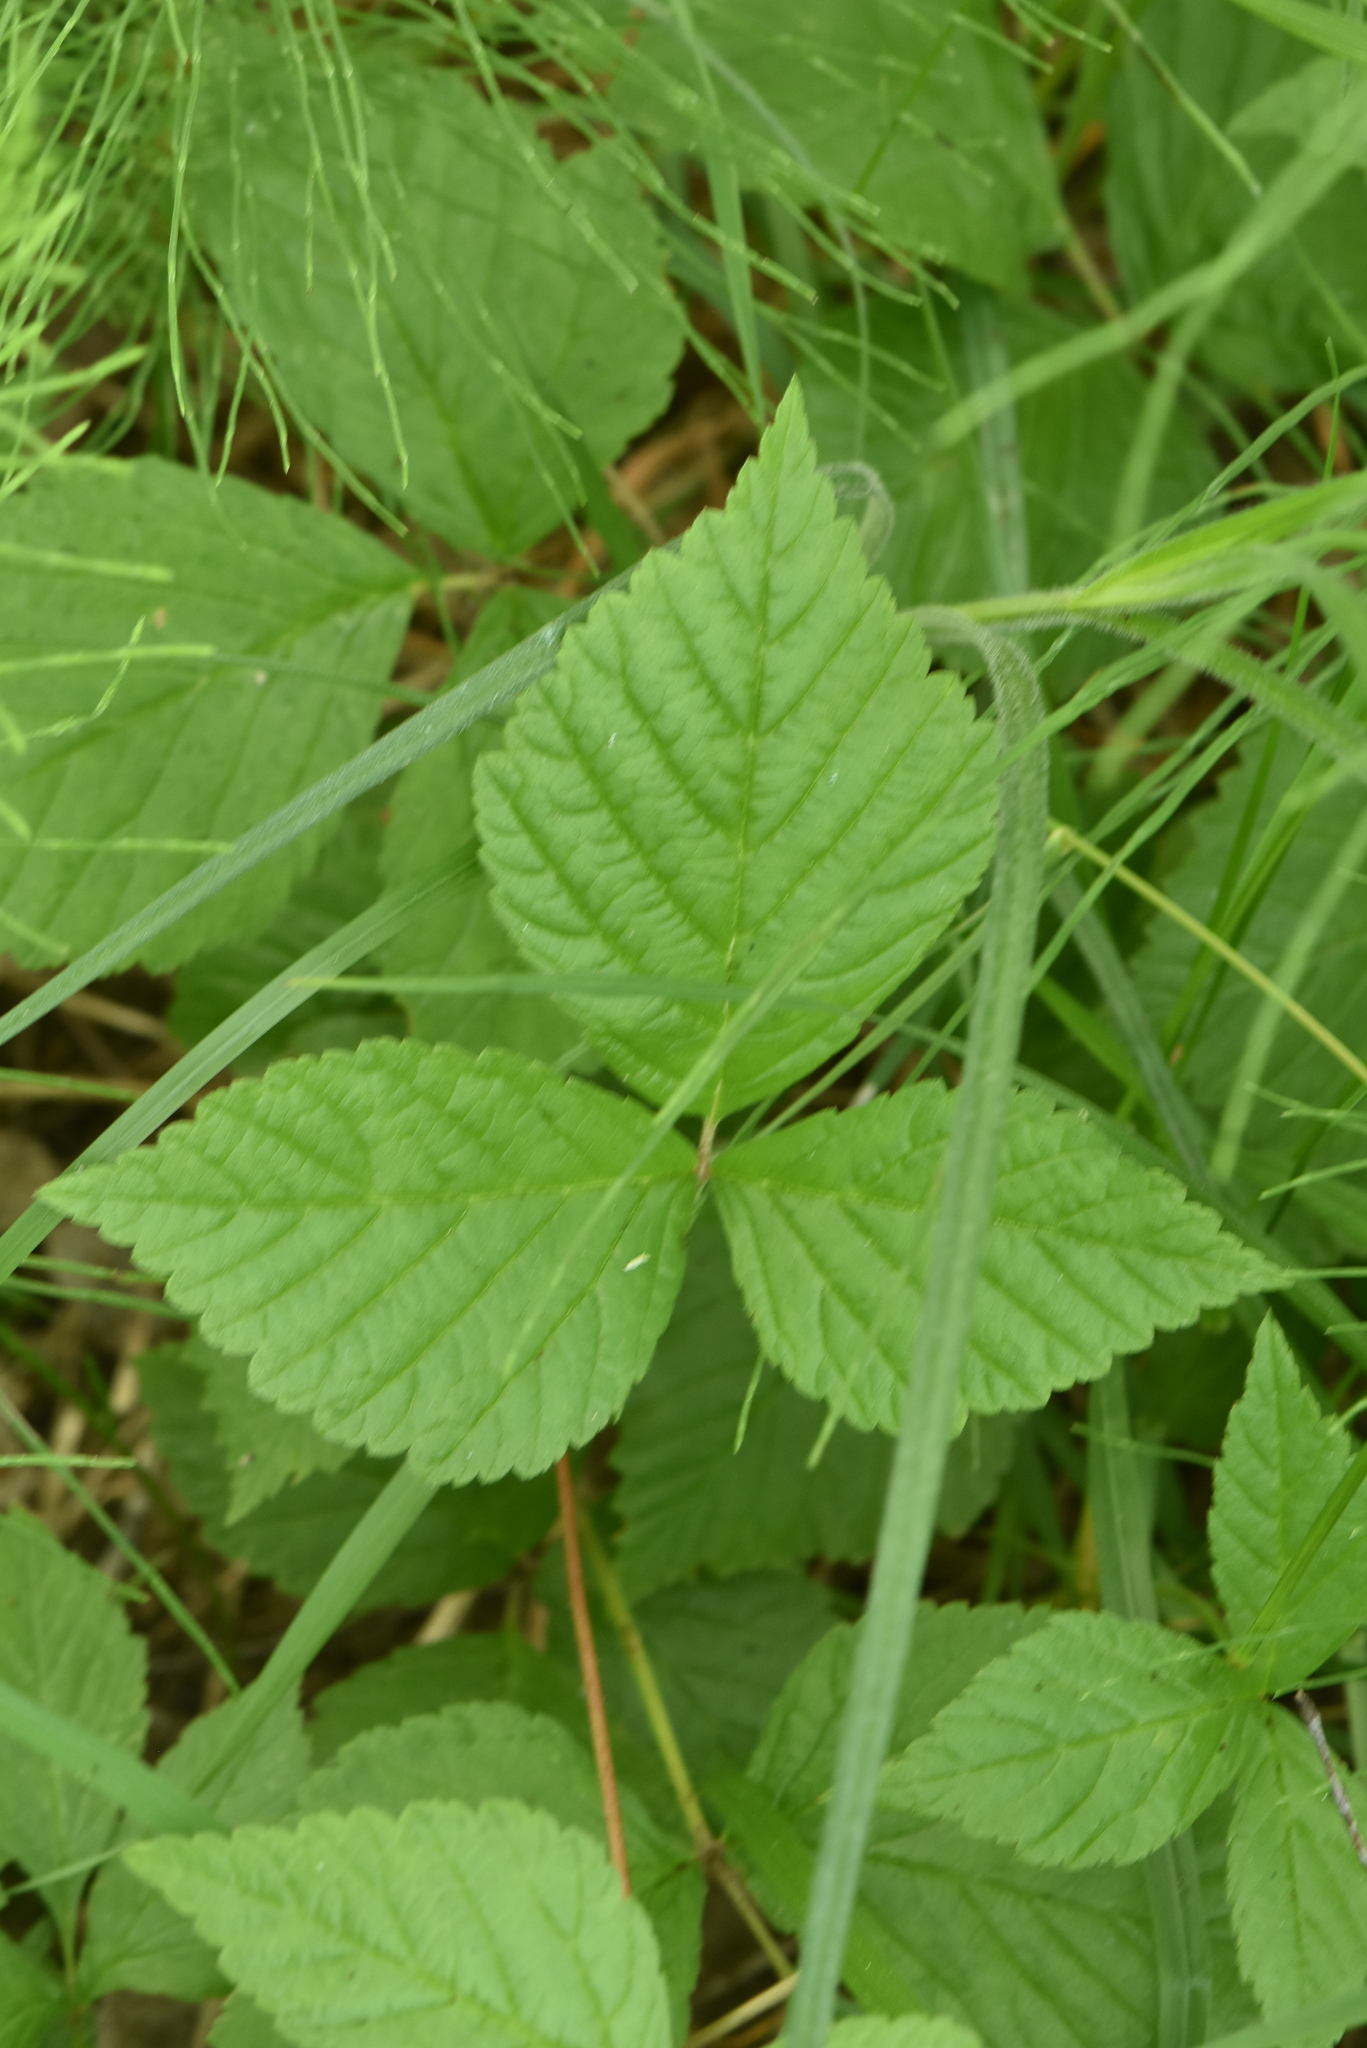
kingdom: Plantae
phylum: Tracheophyta
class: Magnoliopsida
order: Rosales
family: Rosaceae
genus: Rubus
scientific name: Rubus saxatilis
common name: Stone bramble
